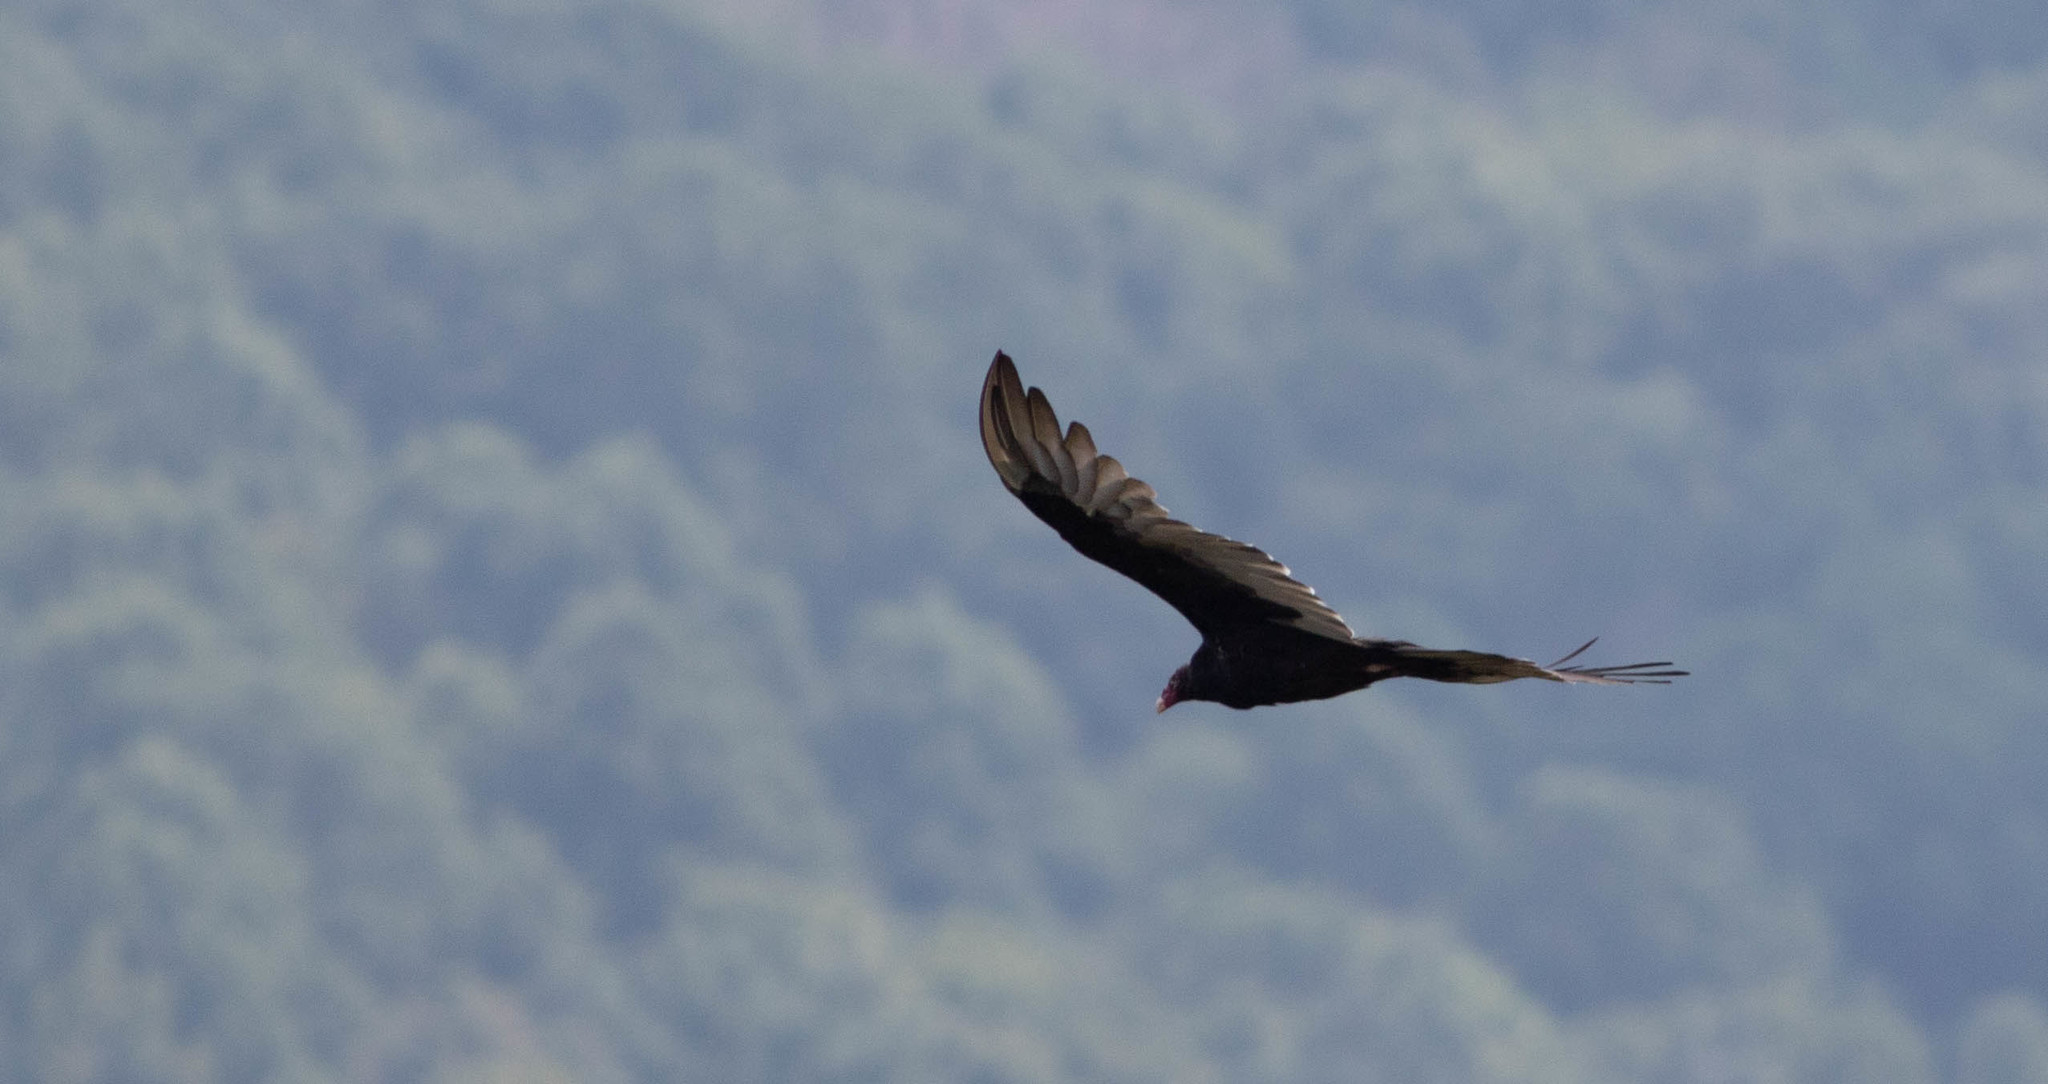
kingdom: Animalia
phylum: Chordata
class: Aves
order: Accipitriformes
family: Cathartidae
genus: Cathartes
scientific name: Cathartes aura
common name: Turkey vulture
